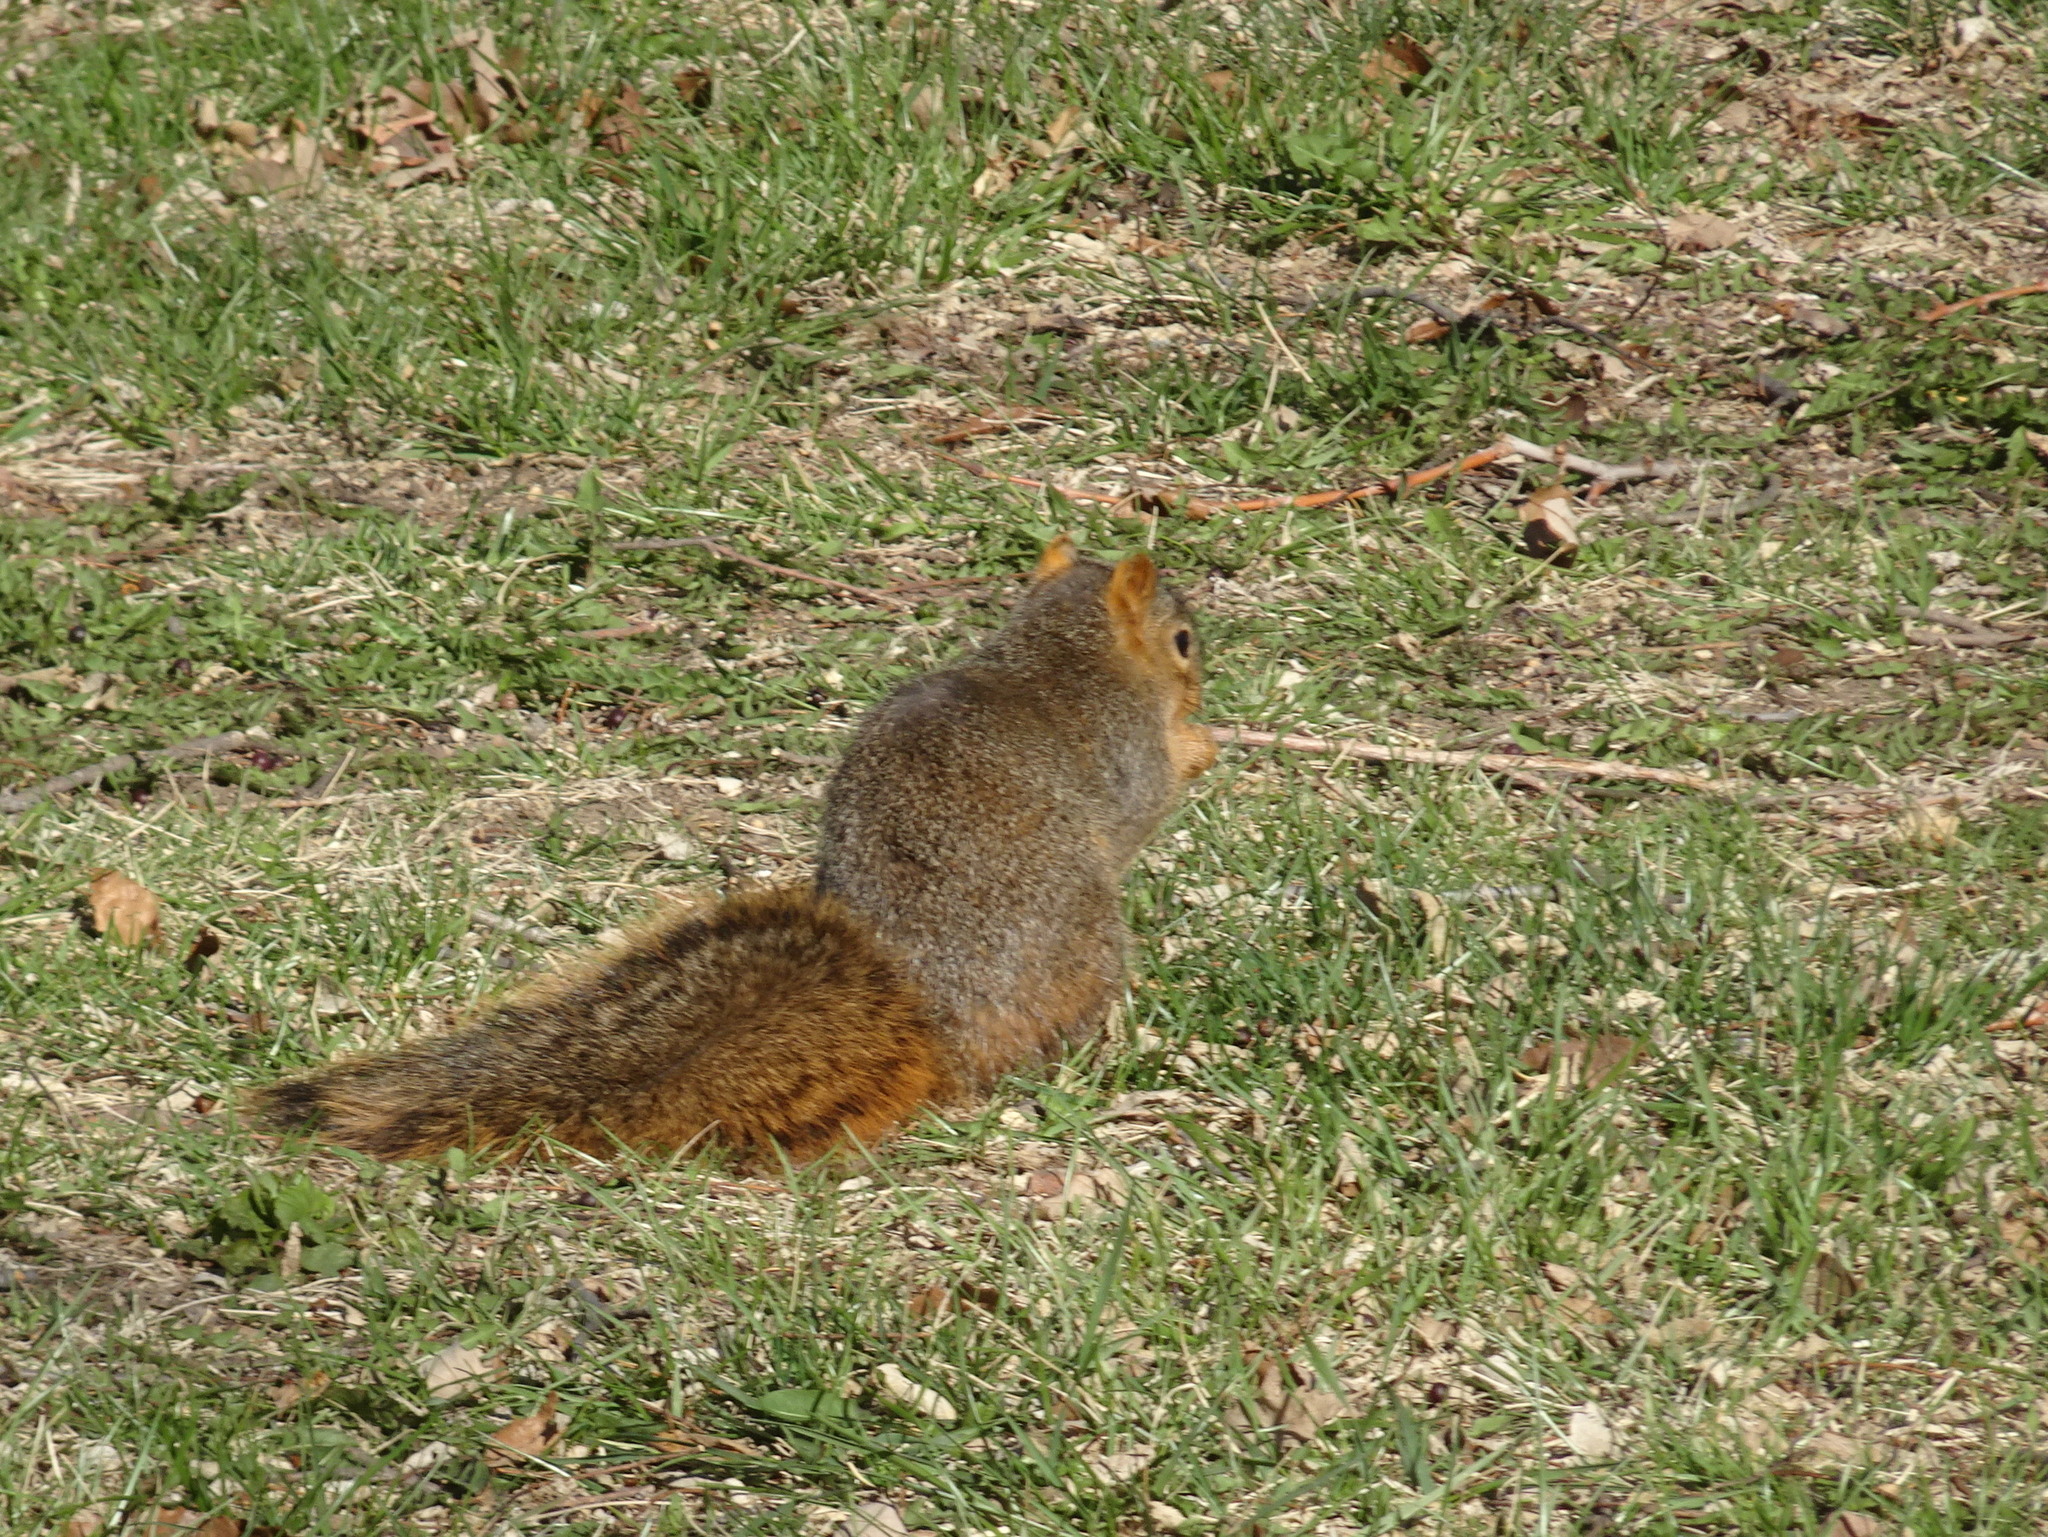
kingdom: Animalia
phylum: Chordata
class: Mammalia
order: Rodentia
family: Sciuridae
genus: Sciurus
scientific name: Sciurus niger
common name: Fox squirrel
